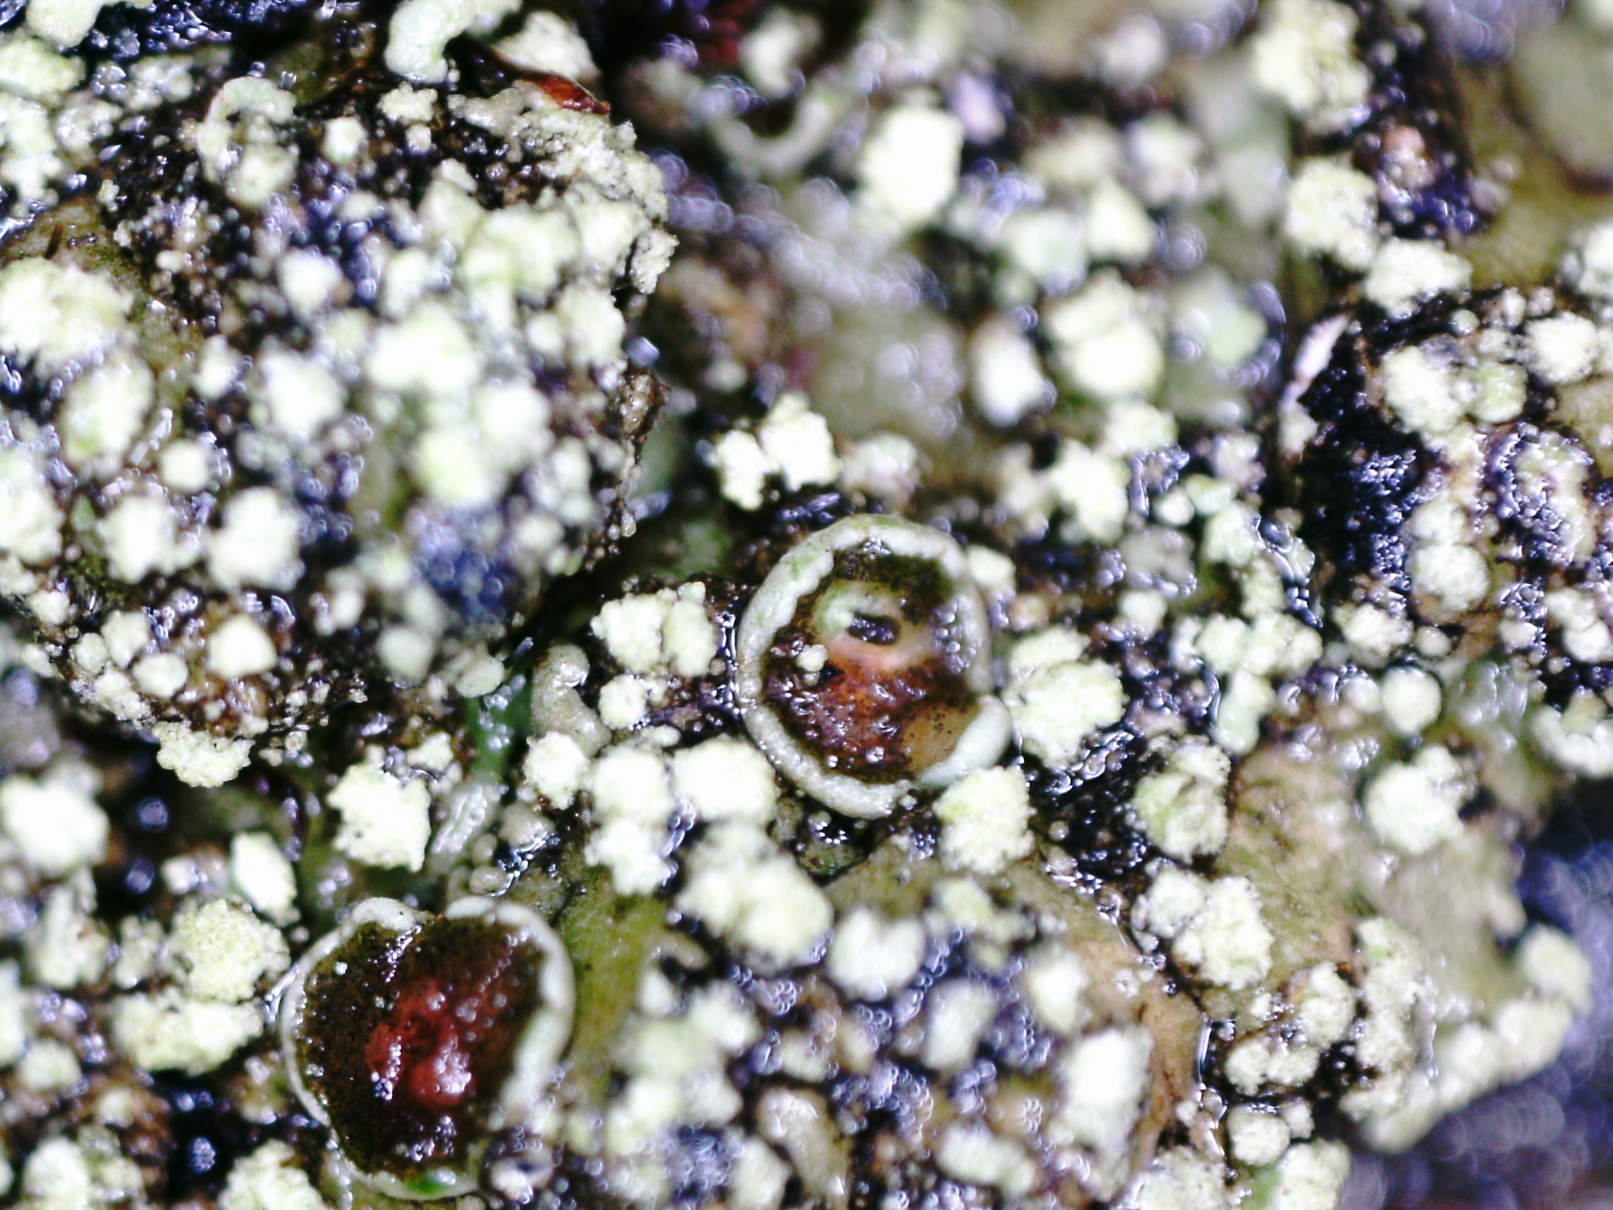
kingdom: Fungi
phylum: Ascomycota
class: Lecanoromycetes
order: Caliciales
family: Physciaceae
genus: Phaeophyscia
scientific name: Phaeophyscia orbicularis
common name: Mealy shadow lichen
